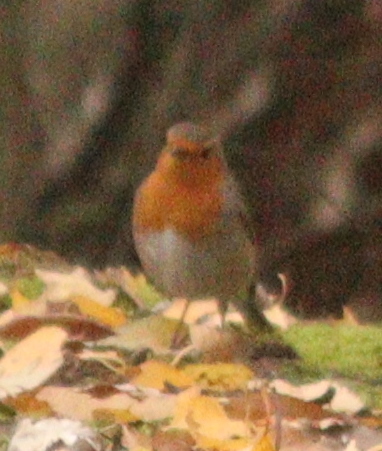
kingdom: Animalia
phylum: Chordata
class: Aves
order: Passeriformes
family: Muscicapidae
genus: Erithacus
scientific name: Erithacus rubecula
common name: European robin
